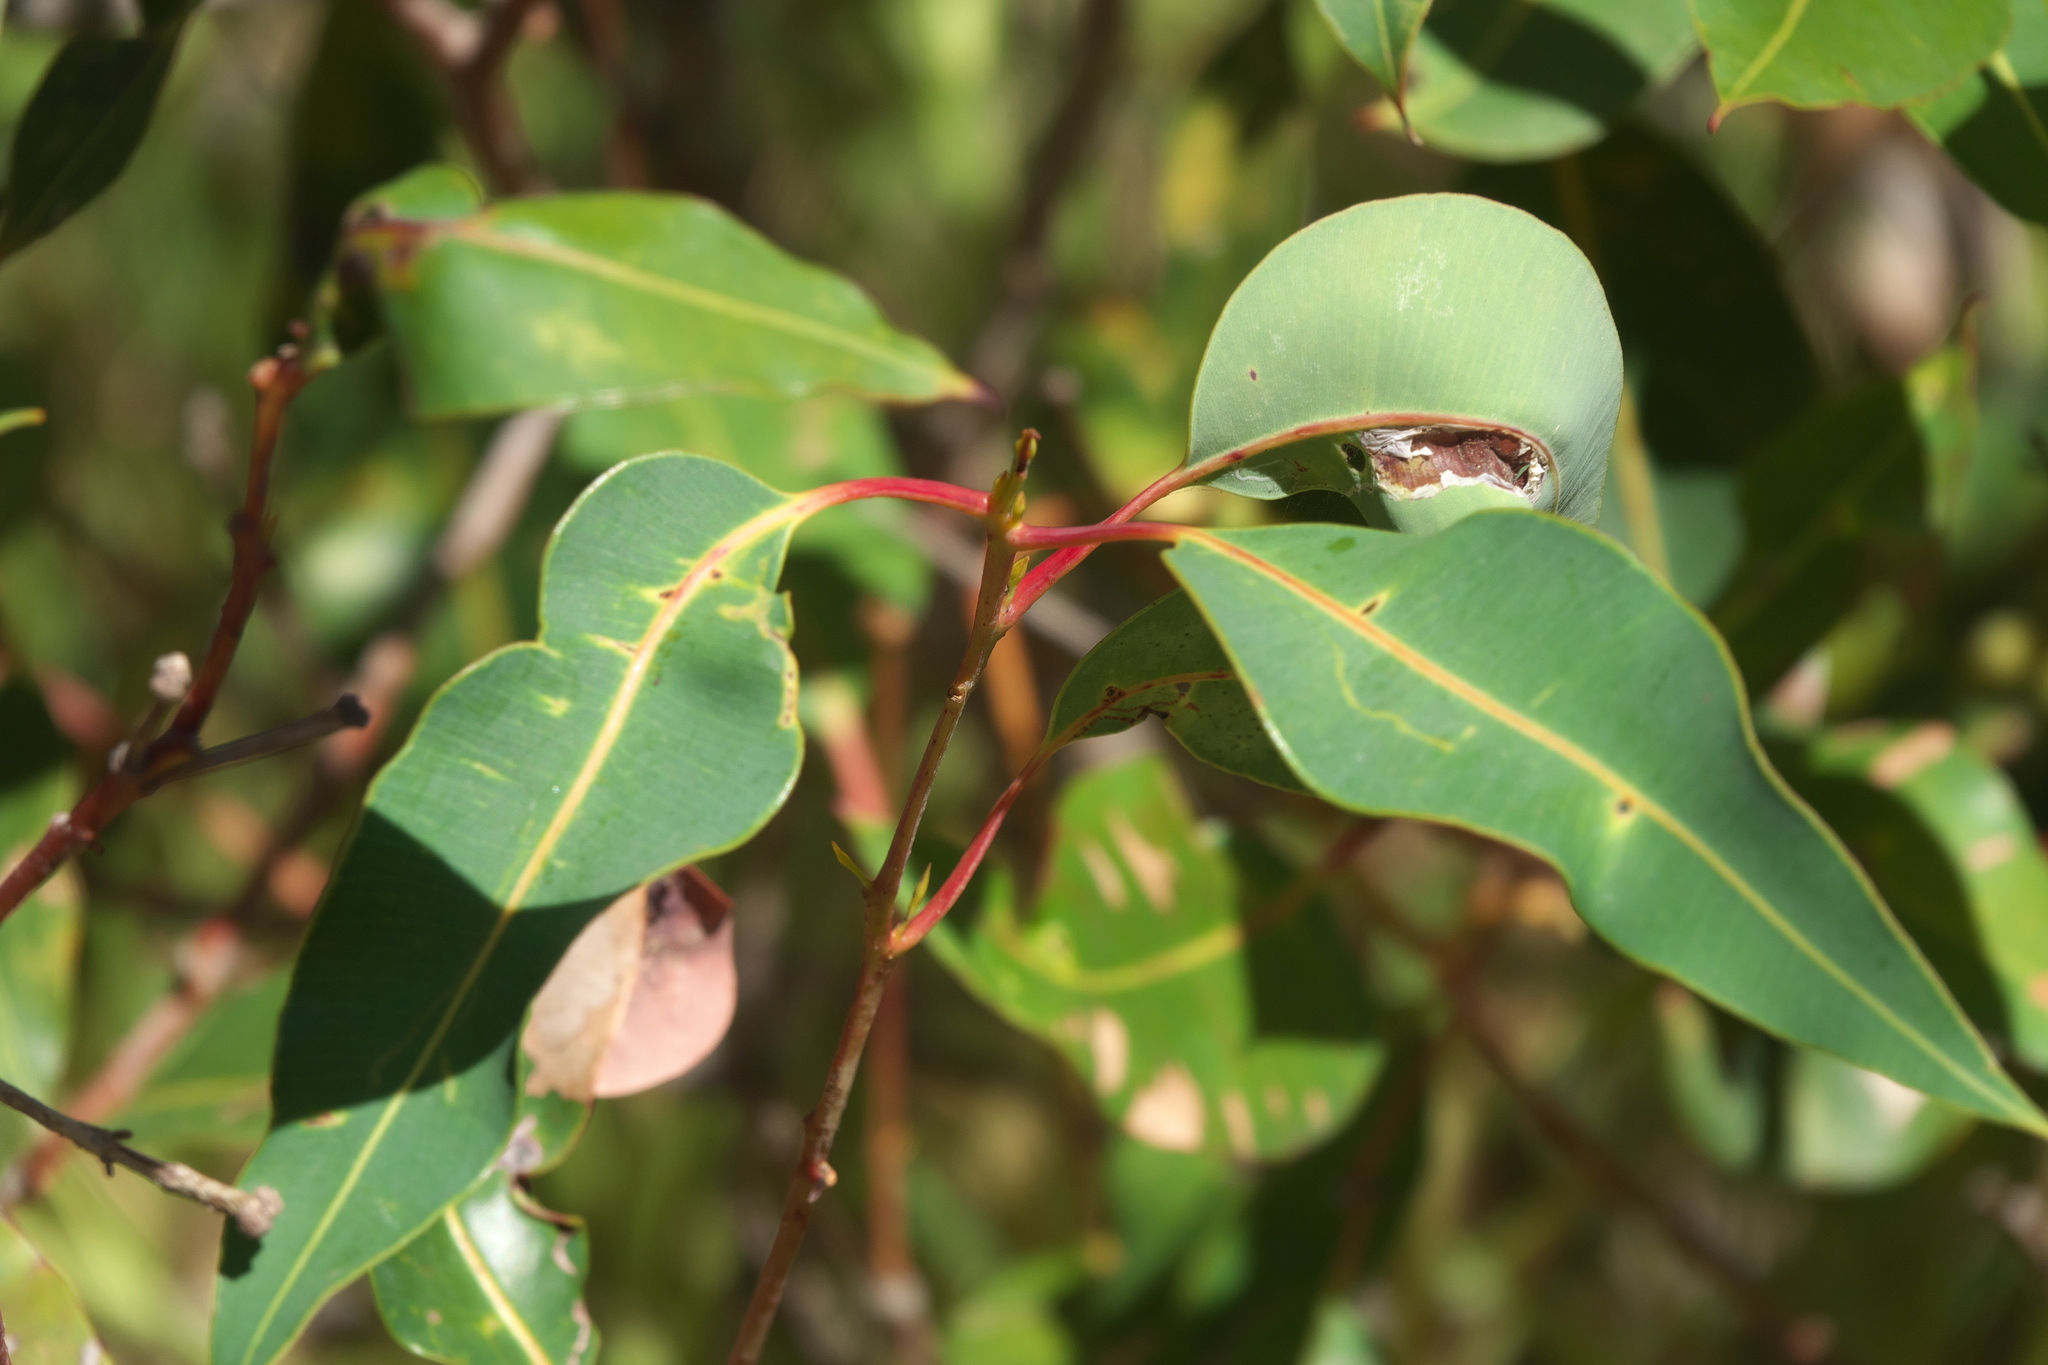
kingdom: Plantae
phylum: Tracheophyta
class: Magnoliopsida
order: Myrtales
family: Myrtaceae
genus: Corymbia
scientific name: Corymbia calophylla
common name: Marri
